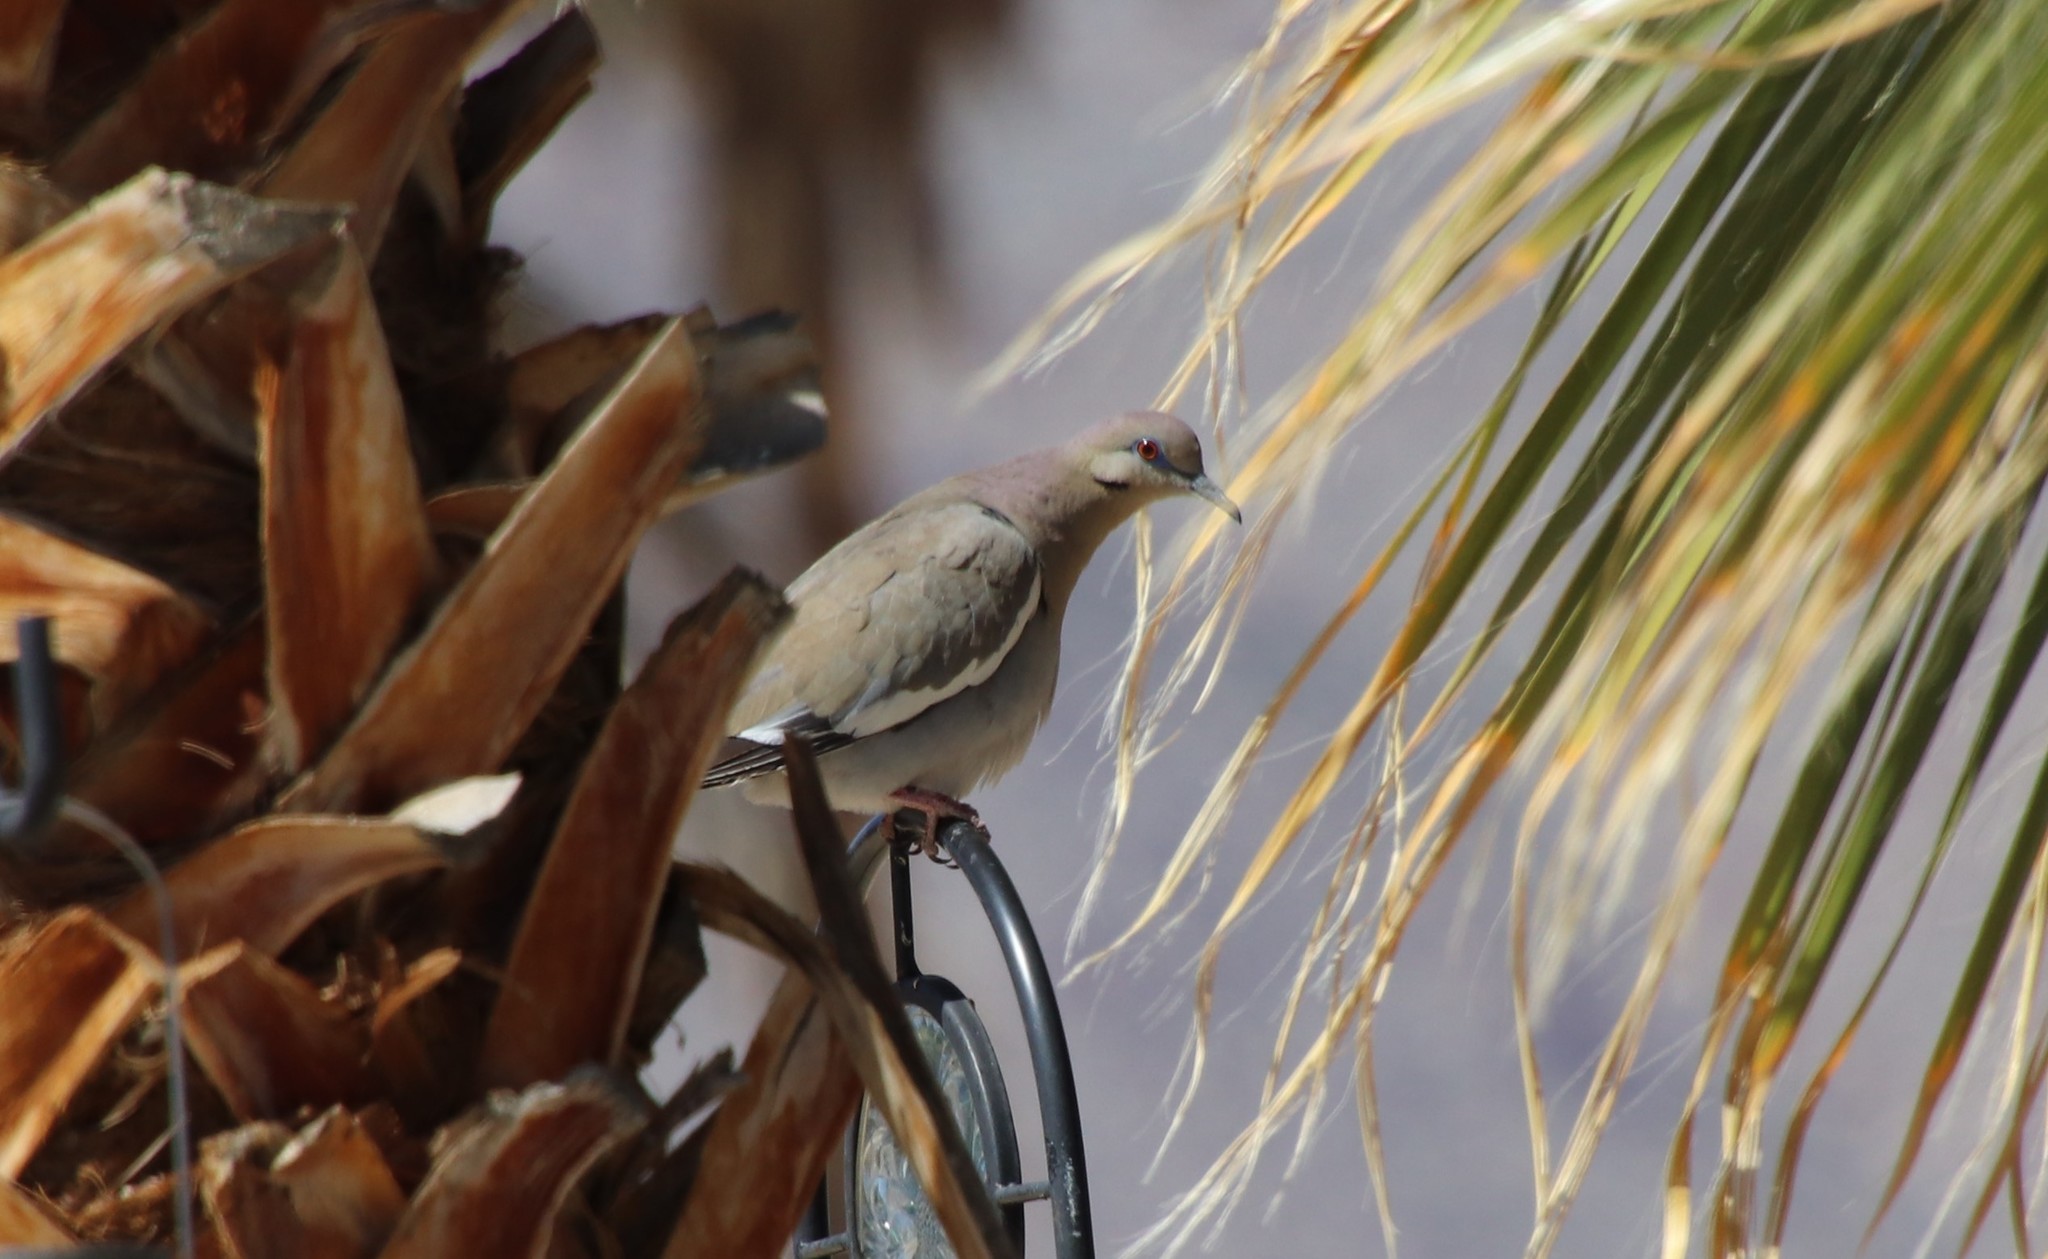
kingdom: Animalia
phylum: Chordata
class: Aves
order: Columbiformes
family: Columbidae
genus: Zenaida
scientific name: Zenaida asiatica
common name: White-winged dove
